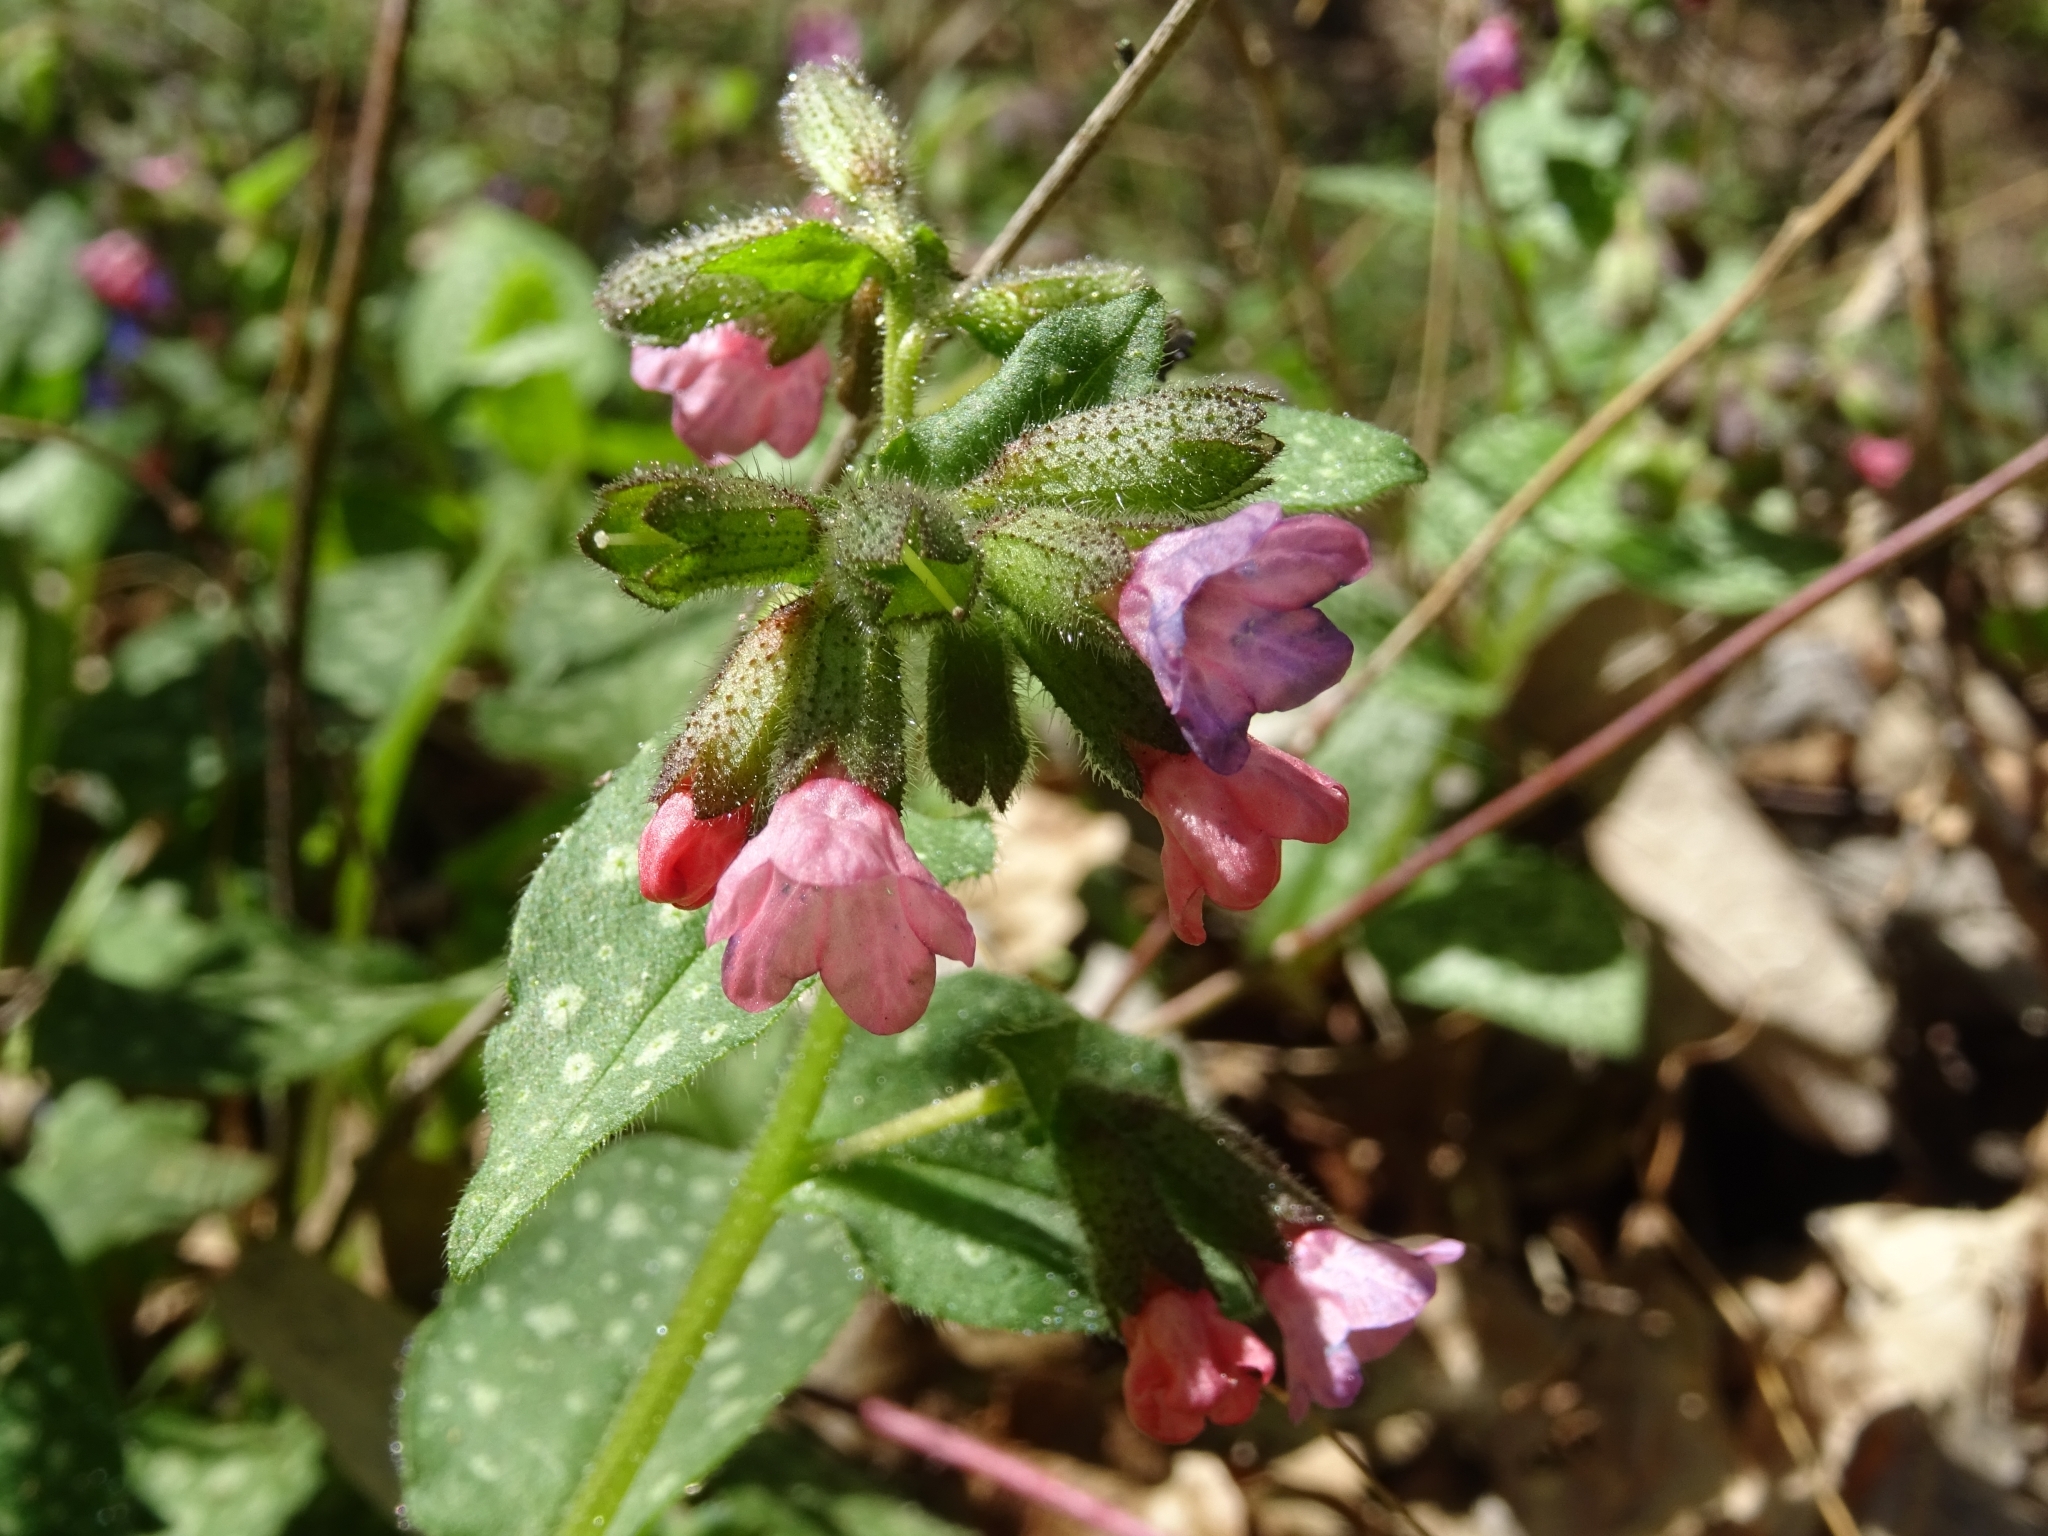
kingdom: Plantae
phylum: Tracheophyta
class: Magnoliopsida
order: Boraginales
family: Boraginaceae
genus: Pulmonaria
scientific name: Pulmonaria officinalis
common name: Lungwort
